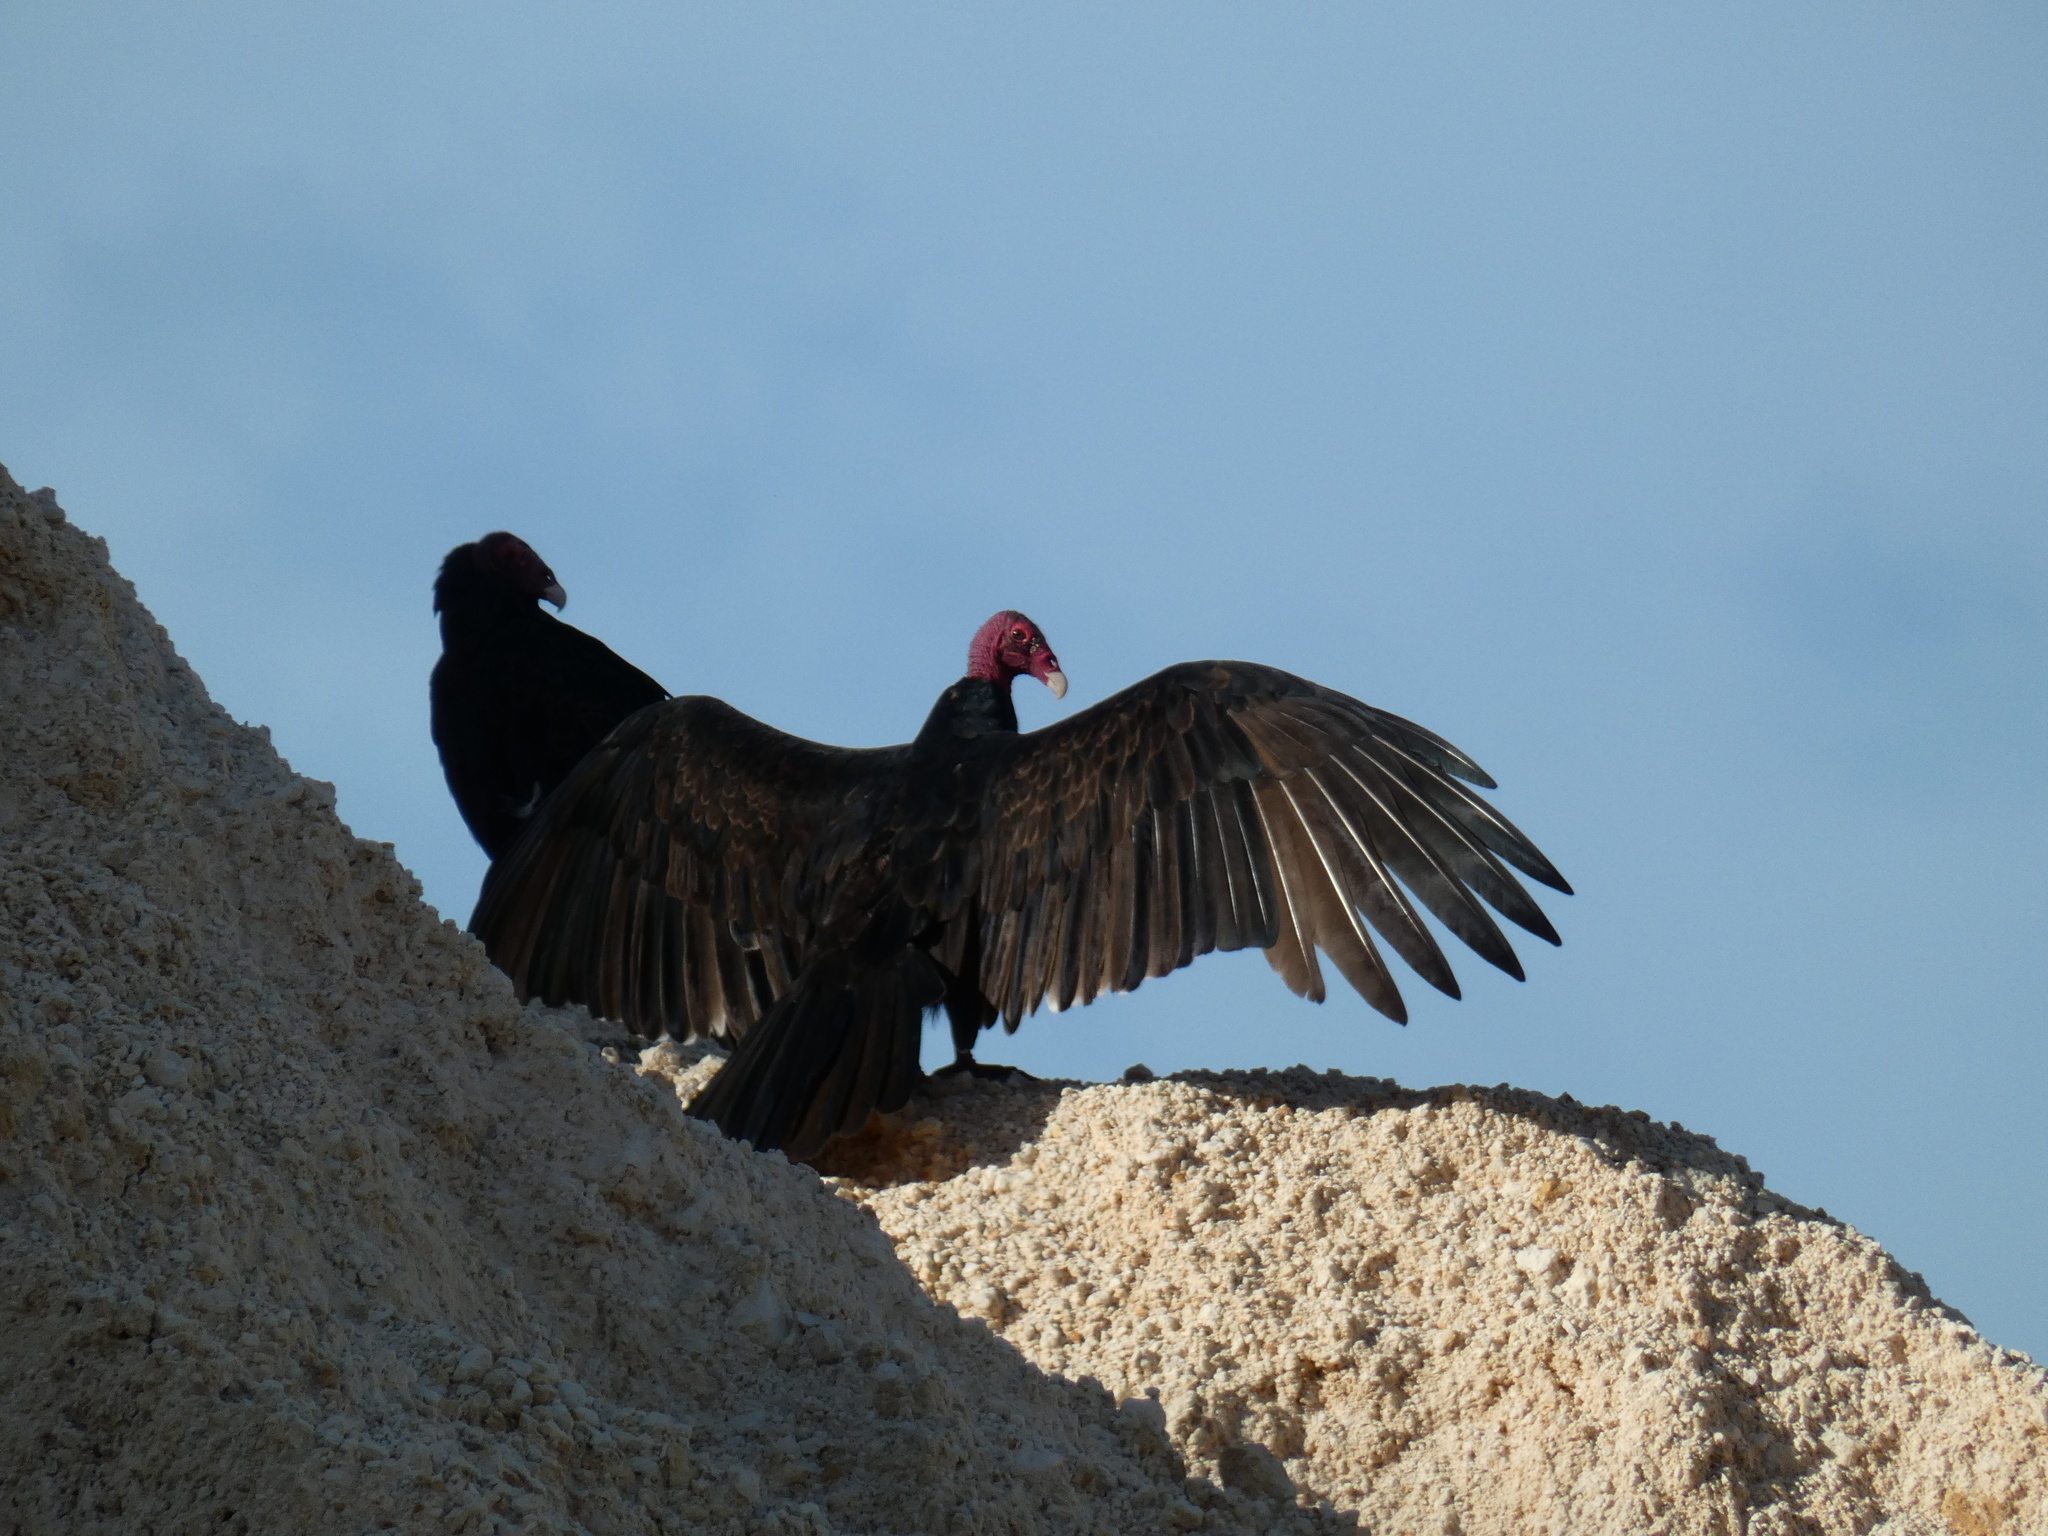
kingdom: Animalia
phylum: Chordata
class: Aves
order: Accipitriformes
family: Cathartidae
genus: Cathartes
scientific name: Cathartes aura
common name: Turkey vulture
